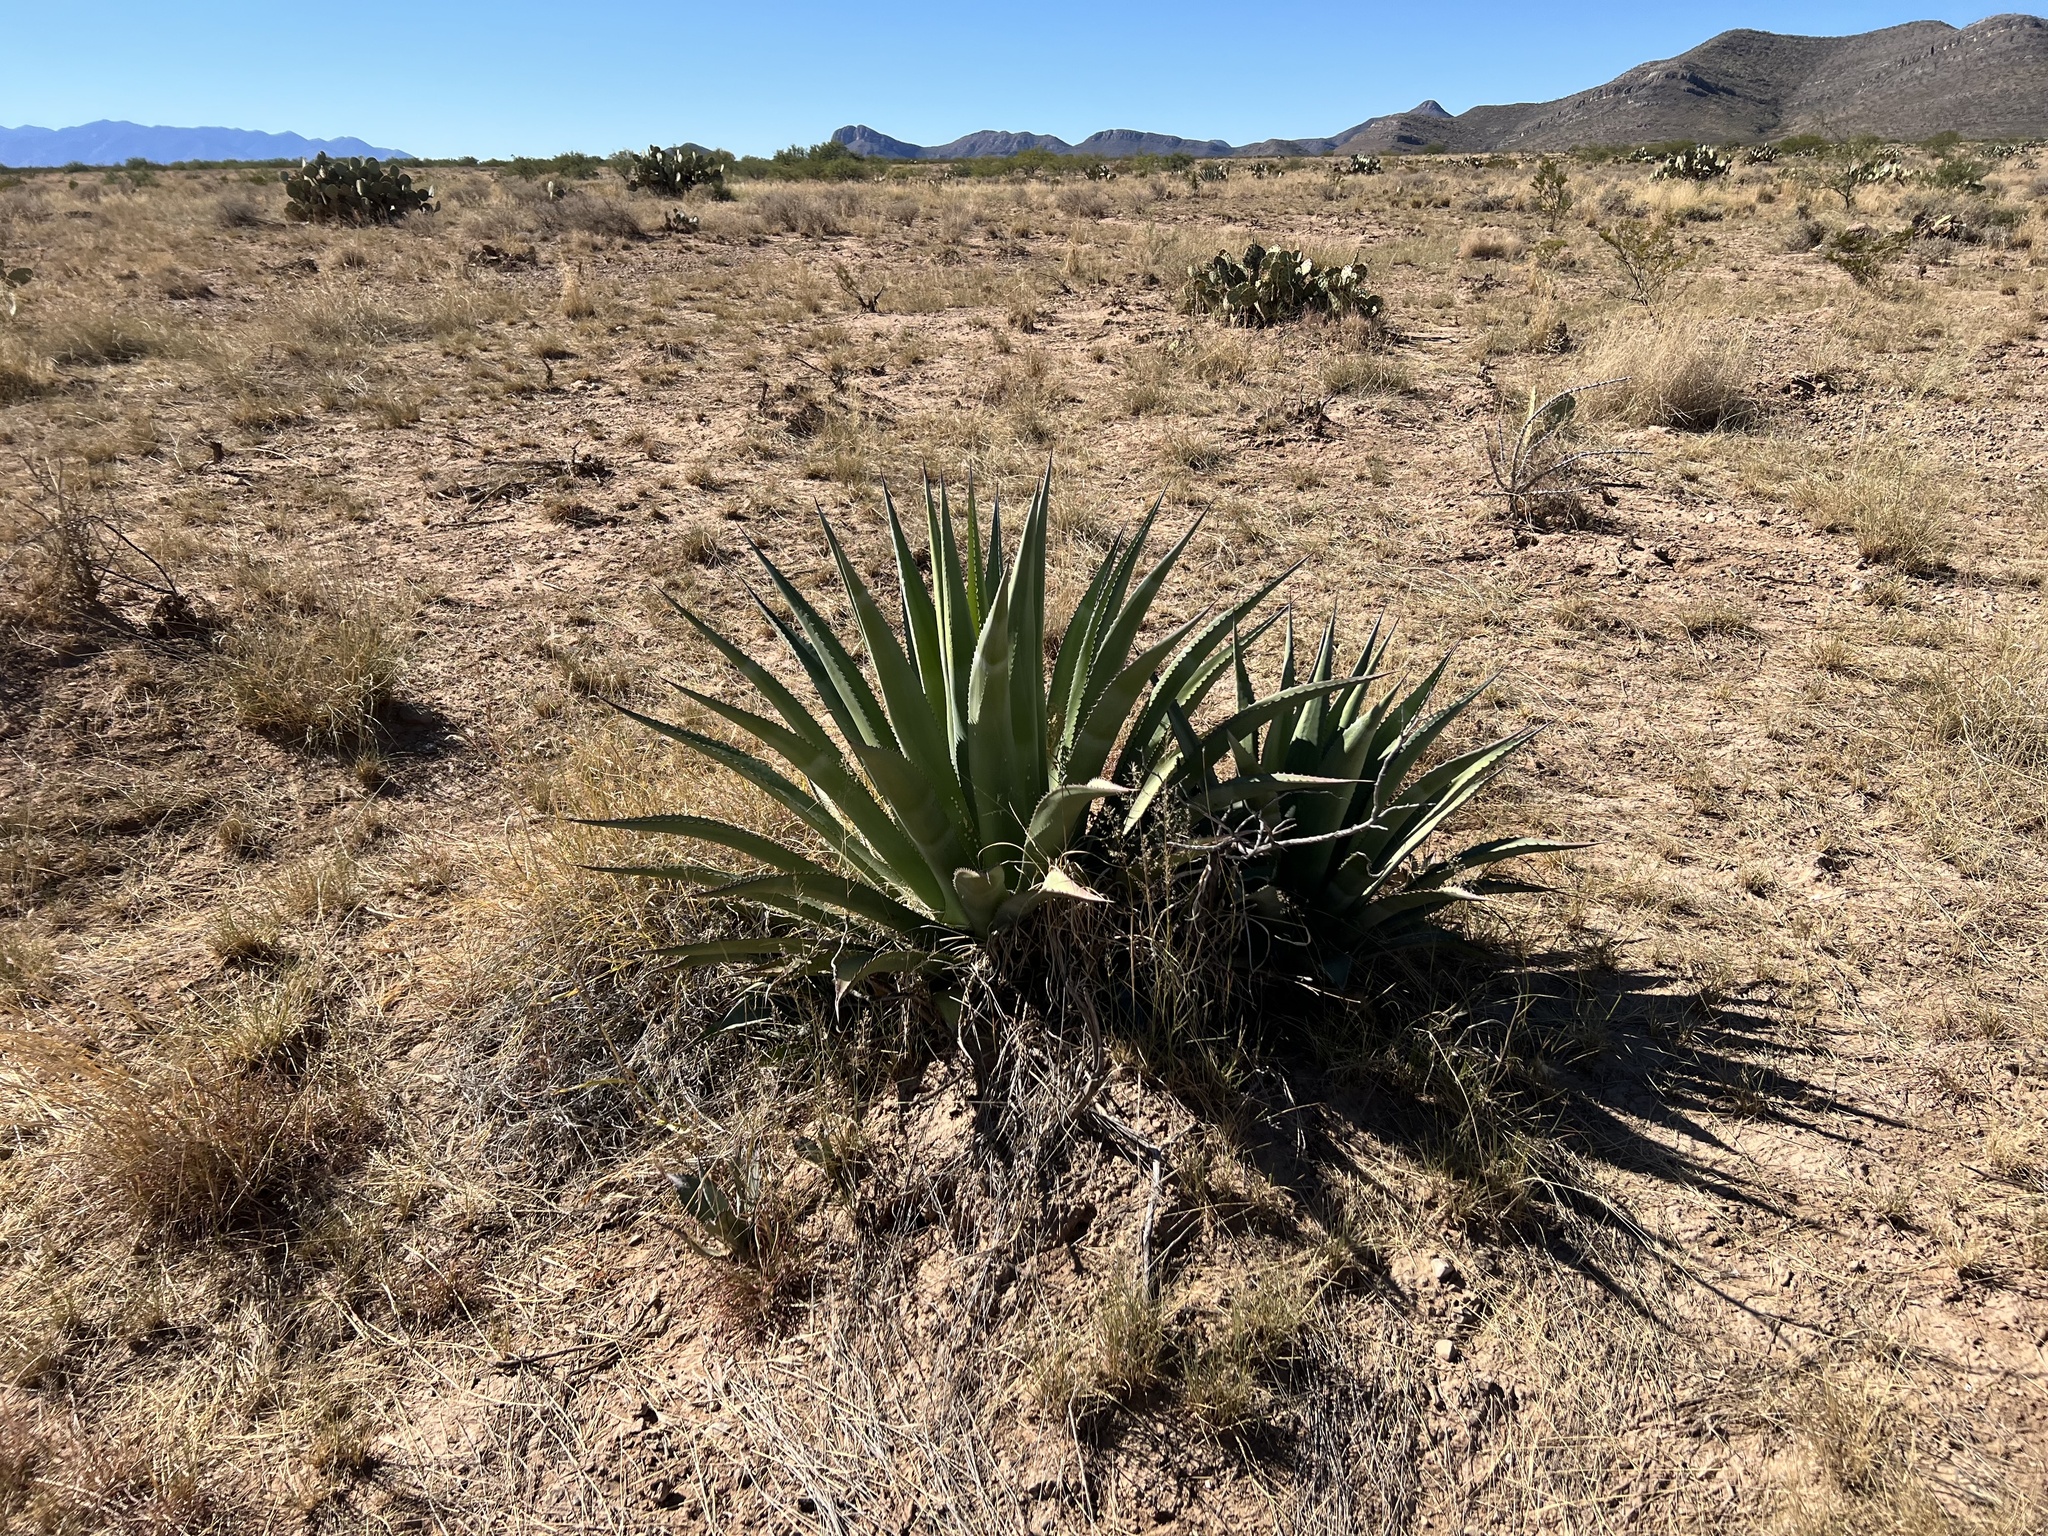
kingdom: Plantae
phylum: Tracheophyta
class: Liliopsida
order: Asparagales
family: Asparagaceae
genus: Agave
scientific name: Agave palmeri
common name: Palmer agave
